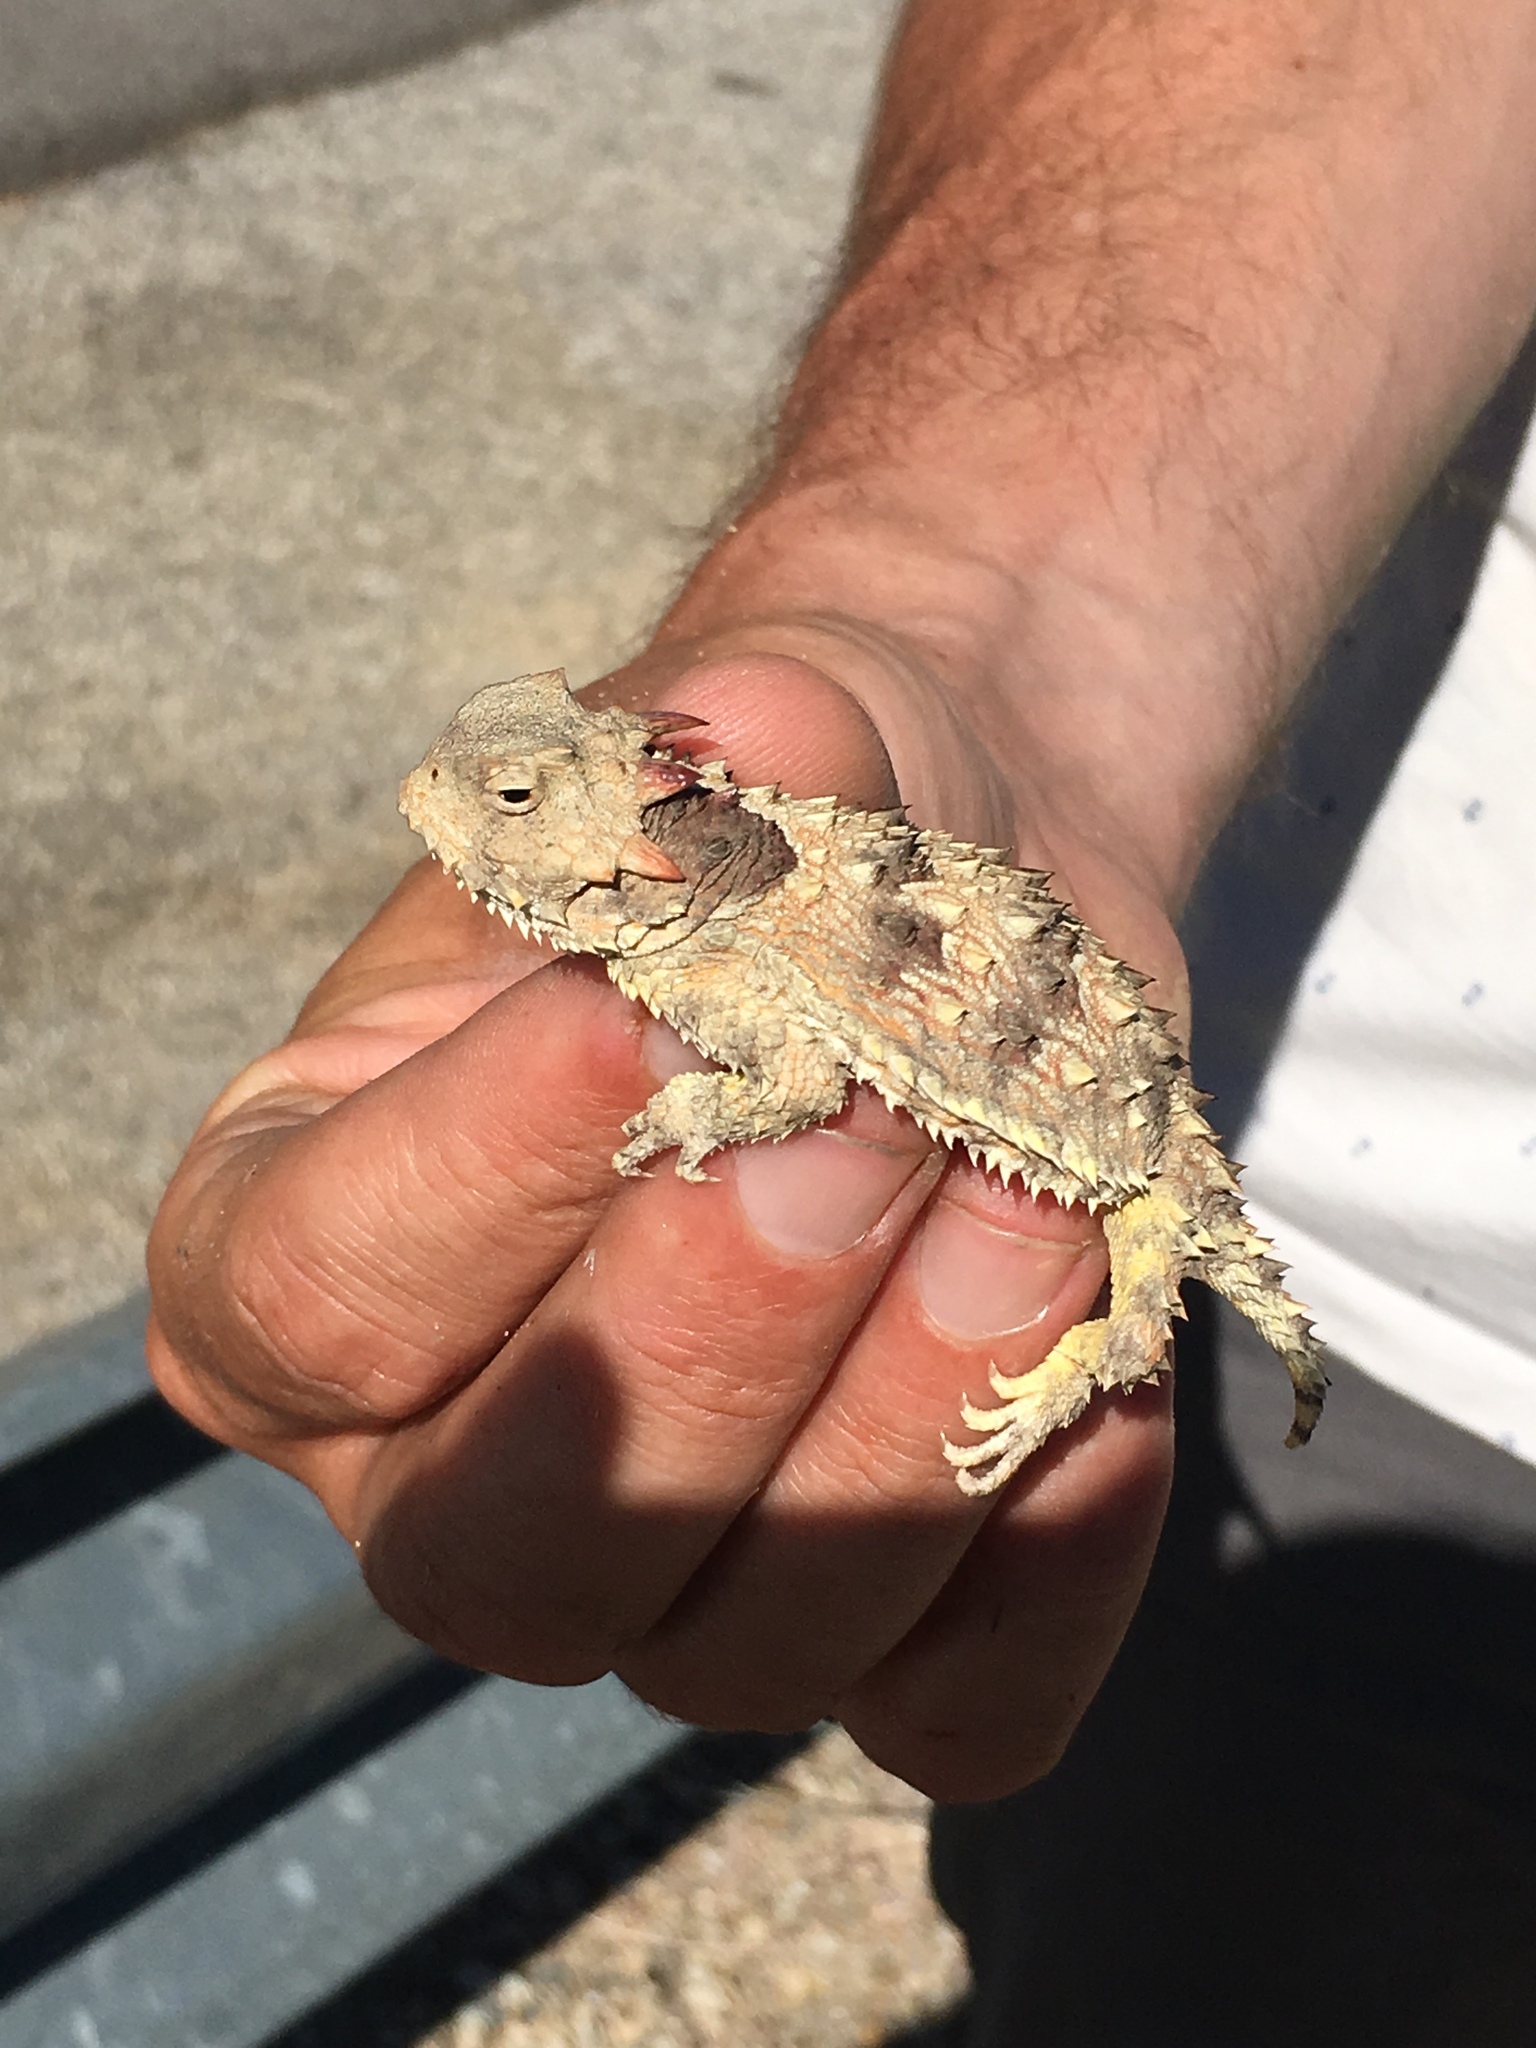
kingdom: Animalia
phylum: Chordata
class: Squamata
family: Phrynosomatidae
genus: Phrynosoma
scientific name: Phrynosoma blainvillii
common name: San diego horned lizard
